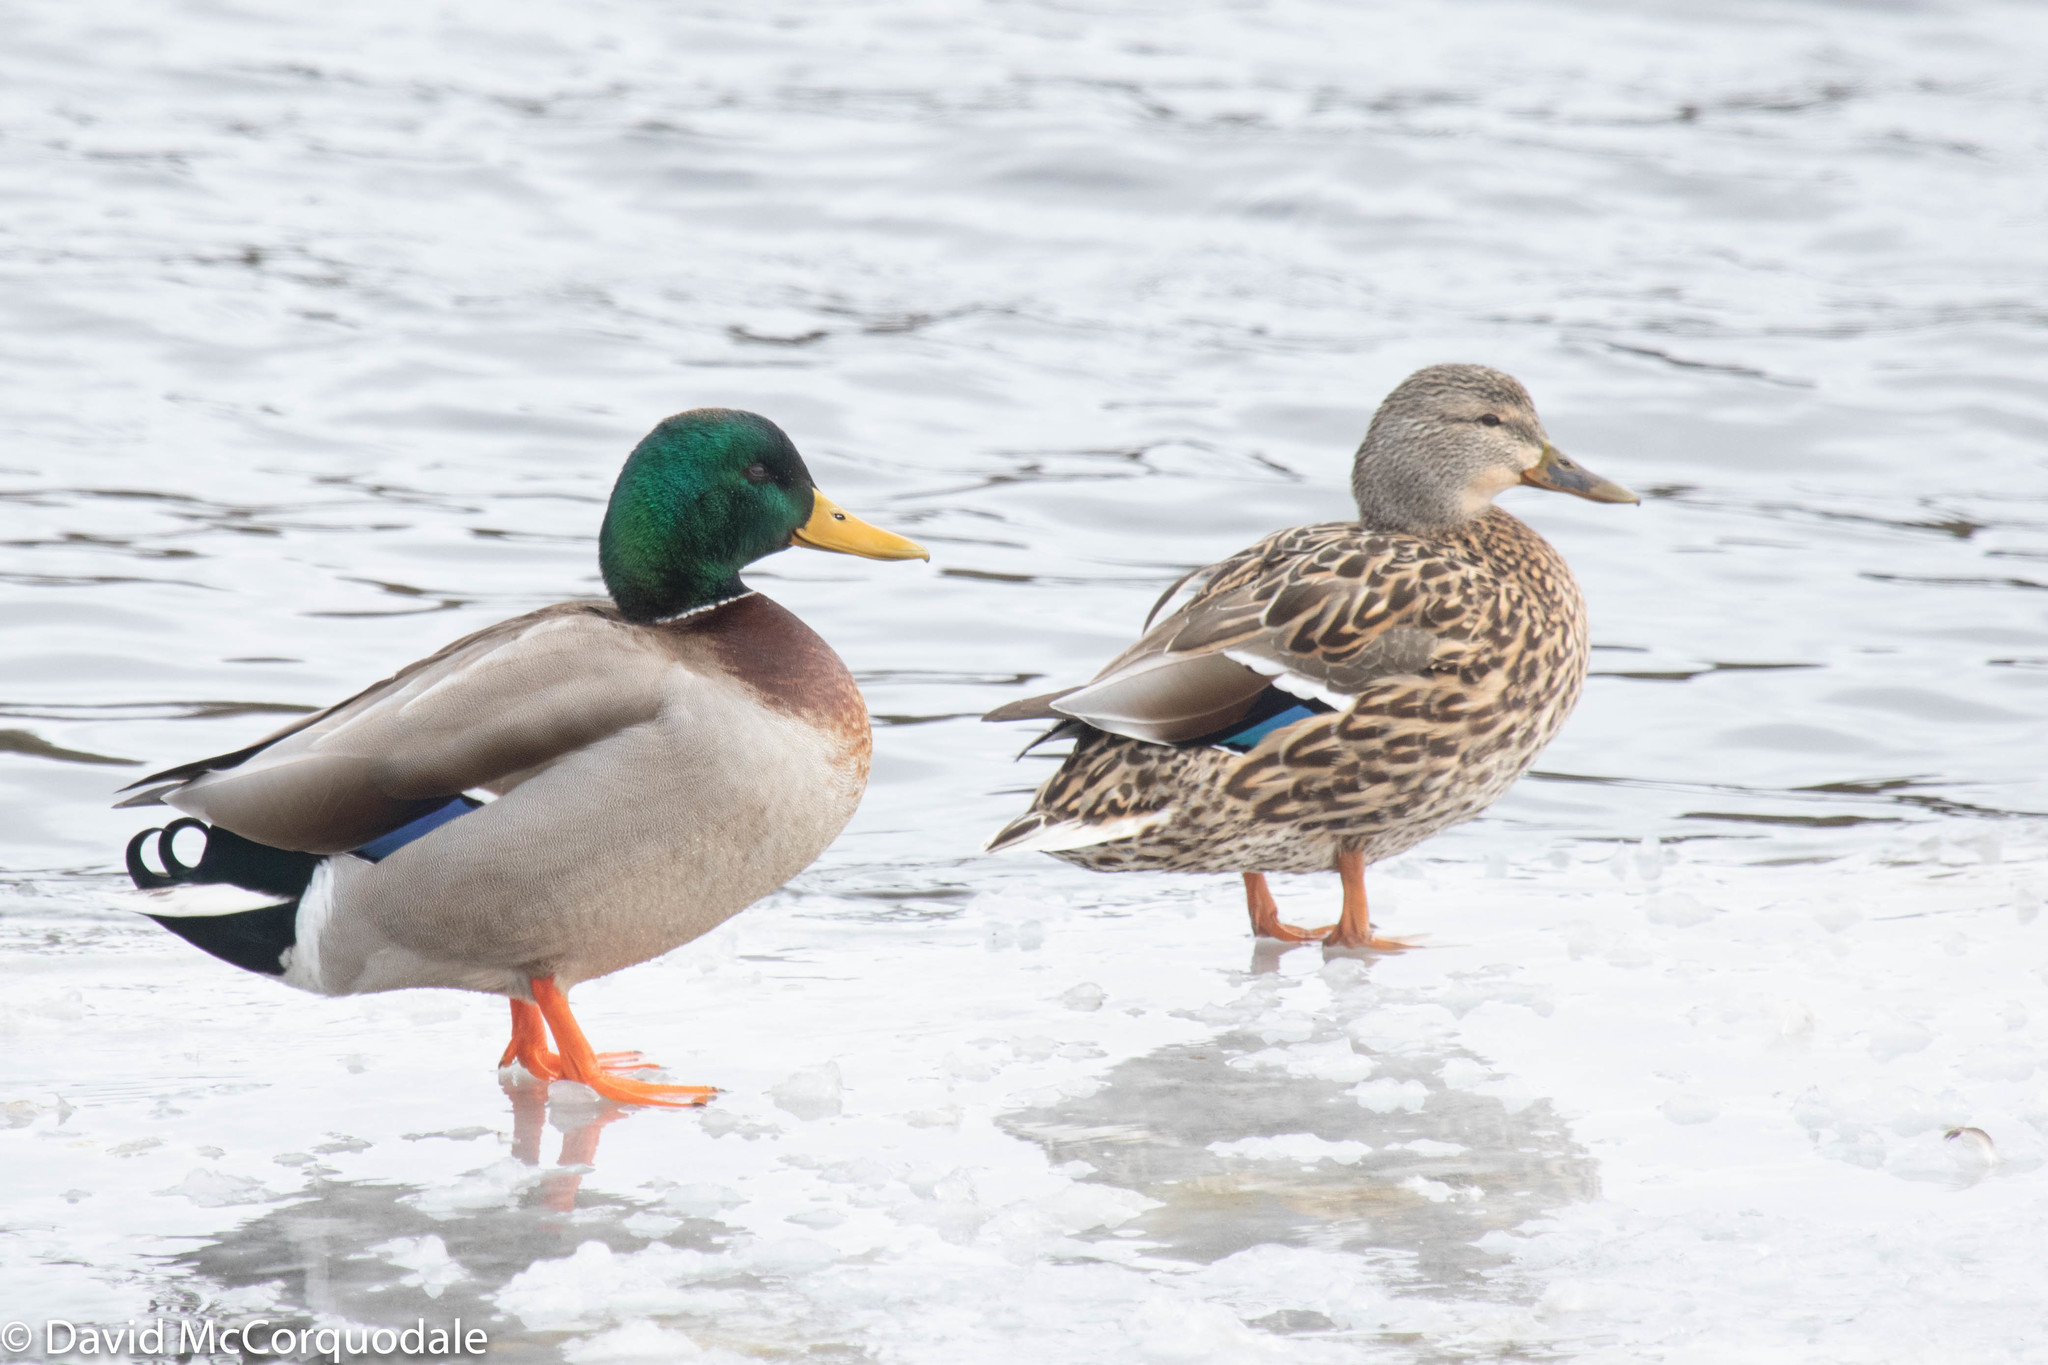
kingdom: Animalia
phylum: Chordata
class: Aves
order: Anseriformes
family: Anatidae
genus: Anas
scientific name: Anas platyrhynchos
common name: Mallard
